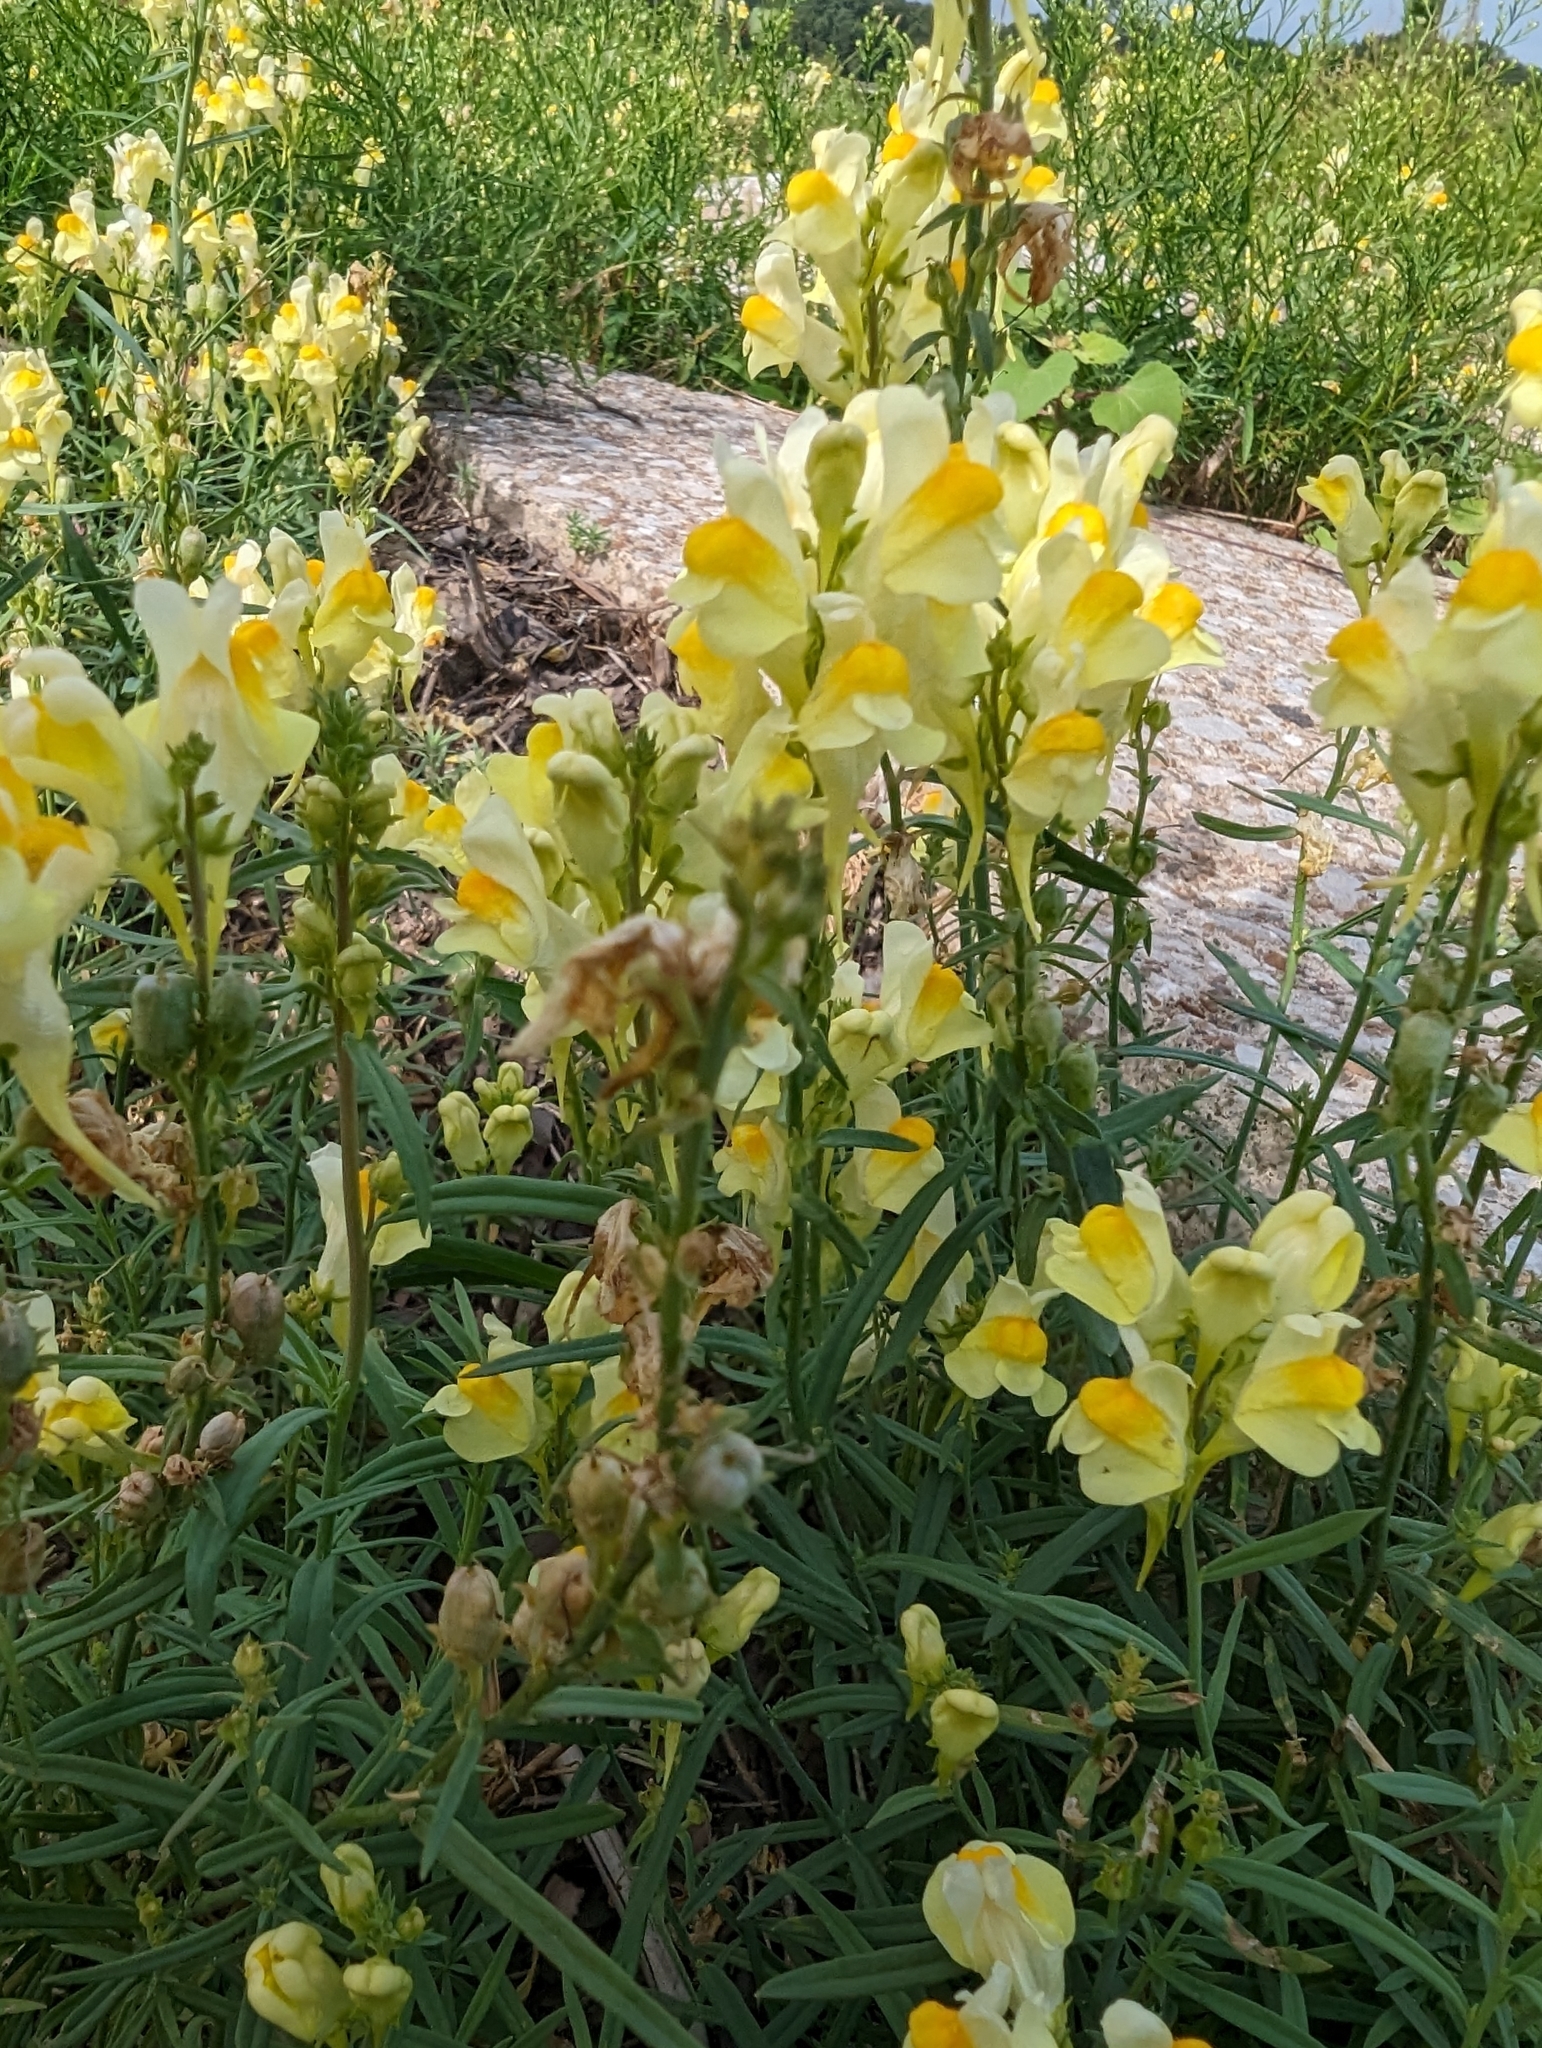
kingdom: Plantae
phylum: Tracheophyta
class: Magnoliopsida
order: Lamiales
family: Plantaginaceae
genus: Linaria
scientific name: Linaria vulgaris
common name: Butter and eggs
